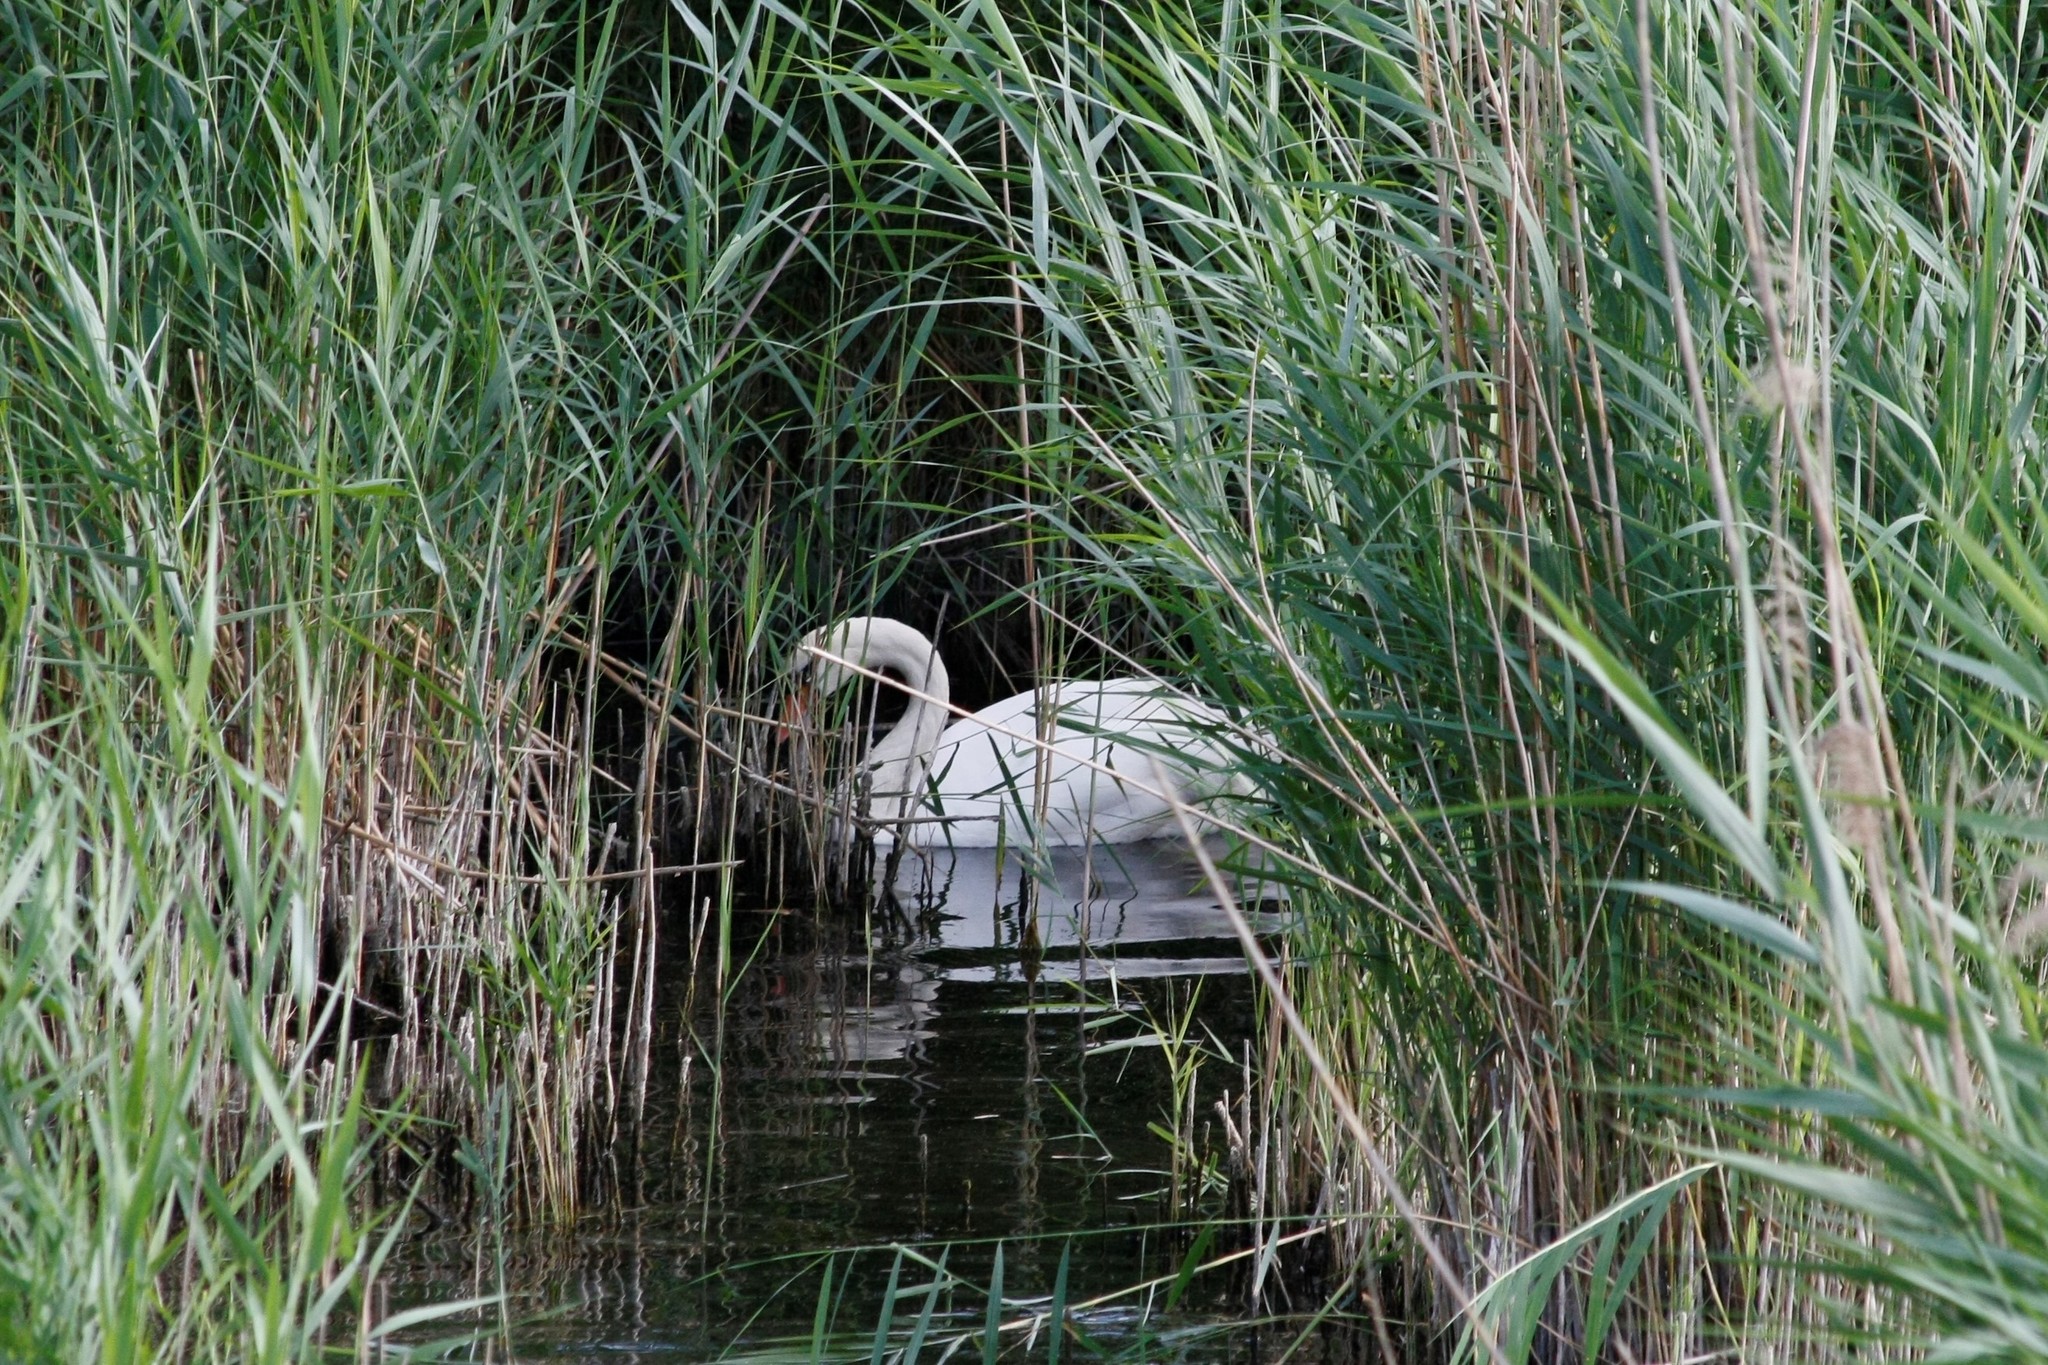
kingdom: Animalia
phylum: Chordata
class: Aves
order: Anseriformes
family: Anatidae
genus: Cygnus
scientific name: Cygnus olor
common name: Mute swan
